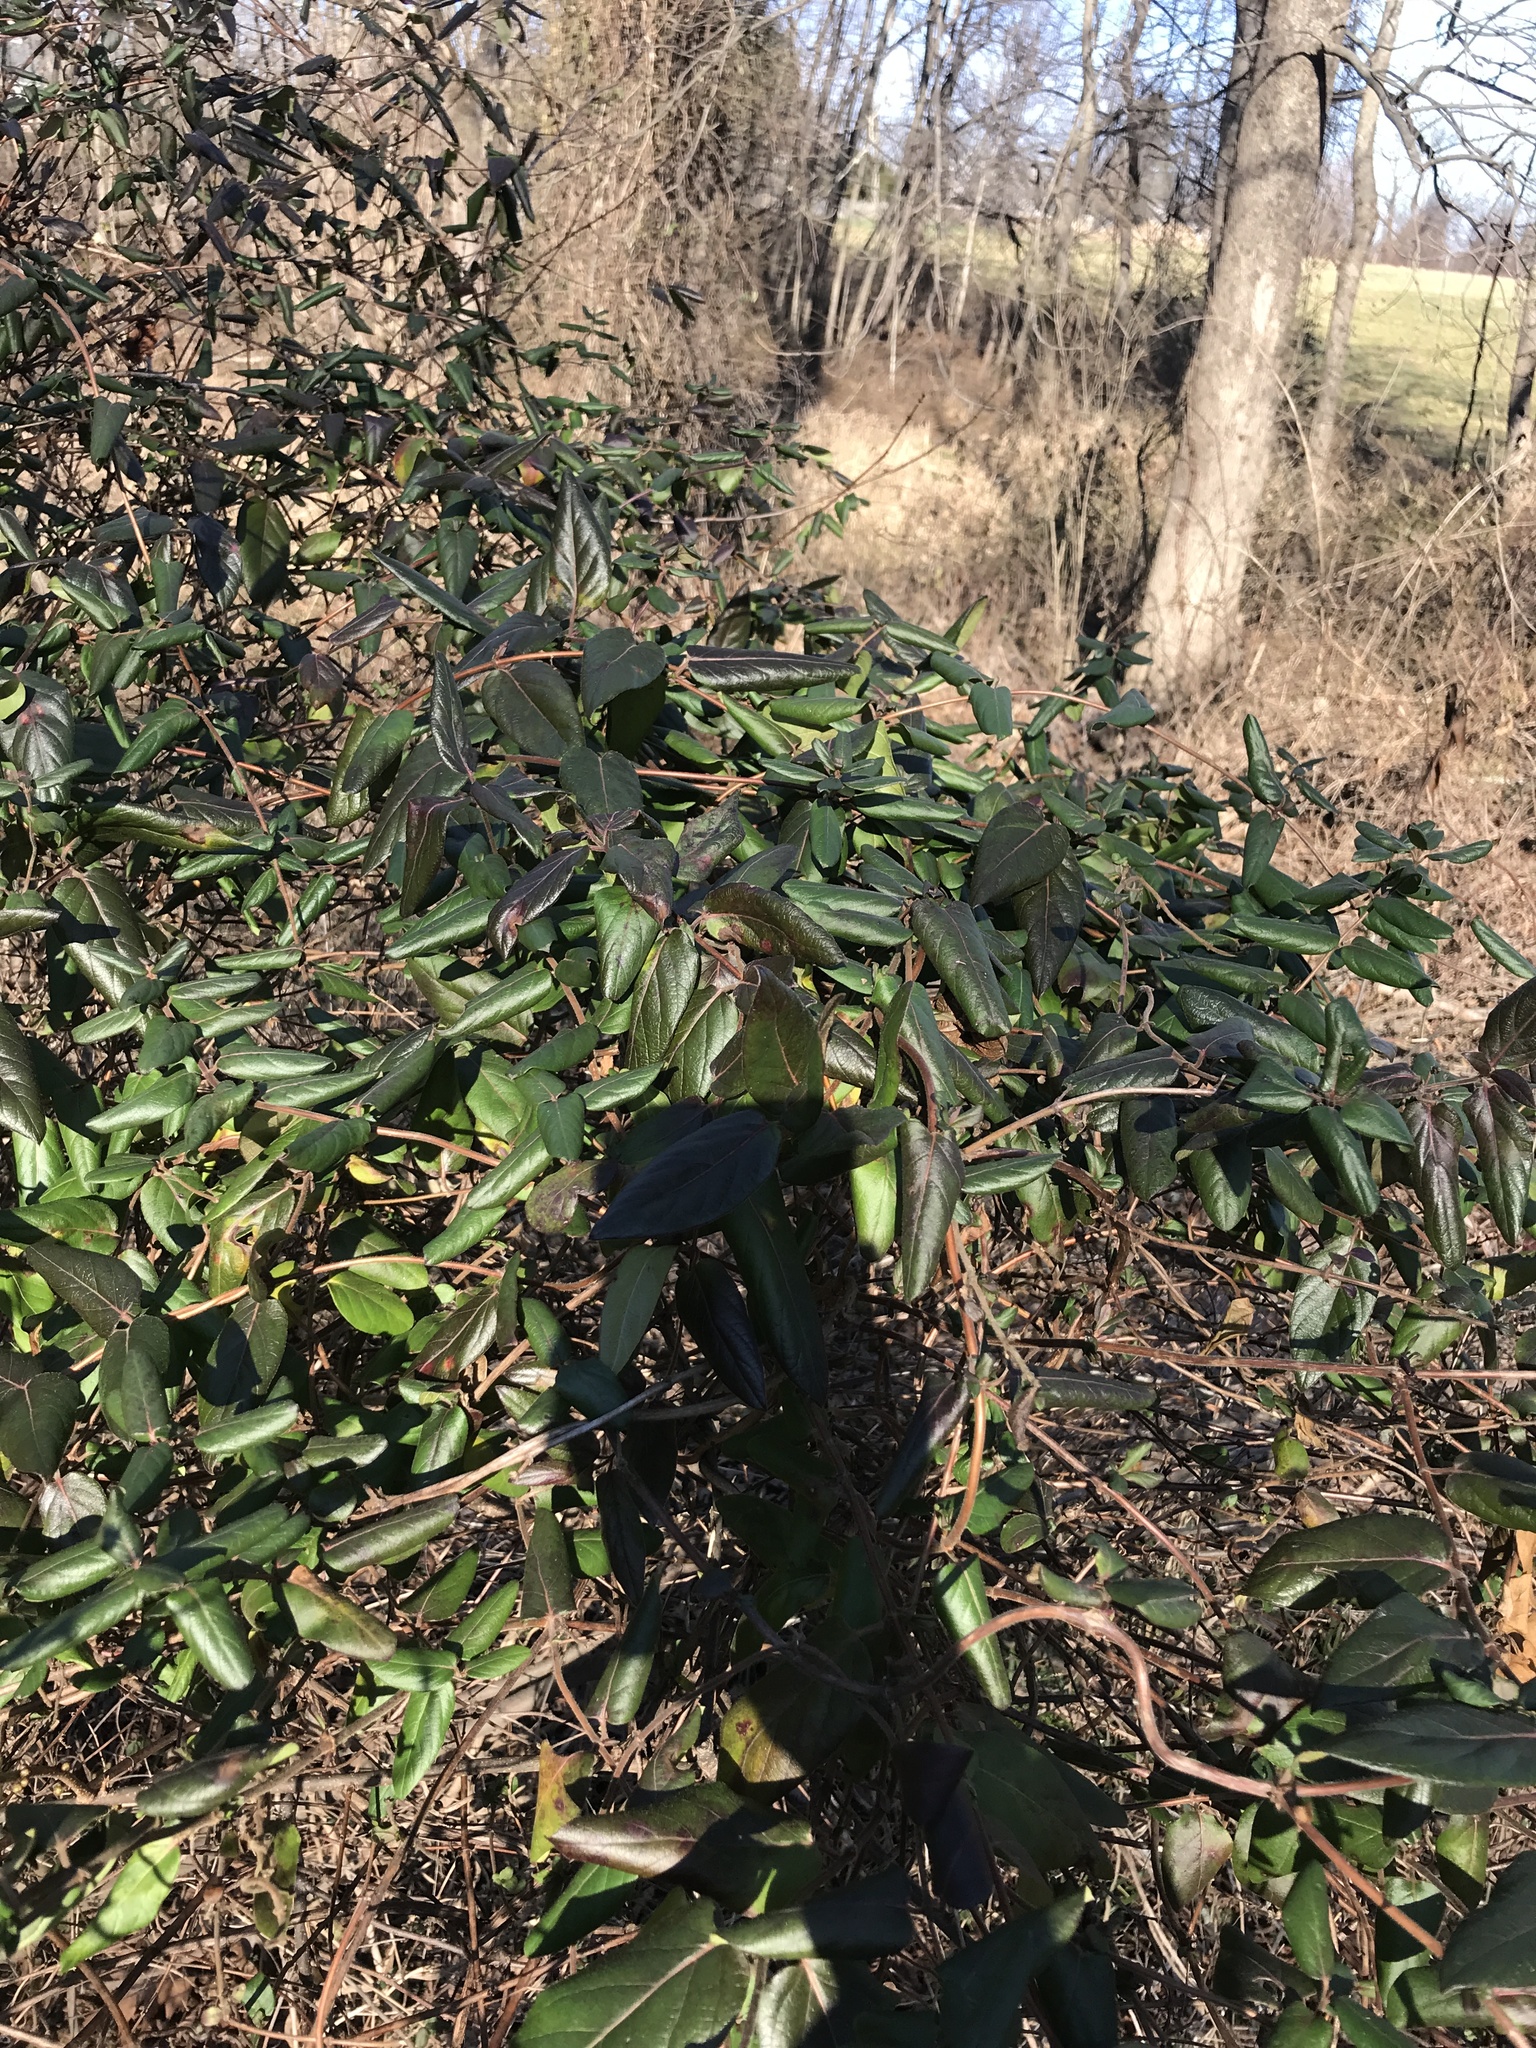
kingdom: Plantae
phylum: Tracheophyta
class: Magnoliopsida
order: Dipsacales
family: Caprifoliaceae
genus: Lonicera
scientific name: Lonicera japonica
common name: Japanese honeysuckle
